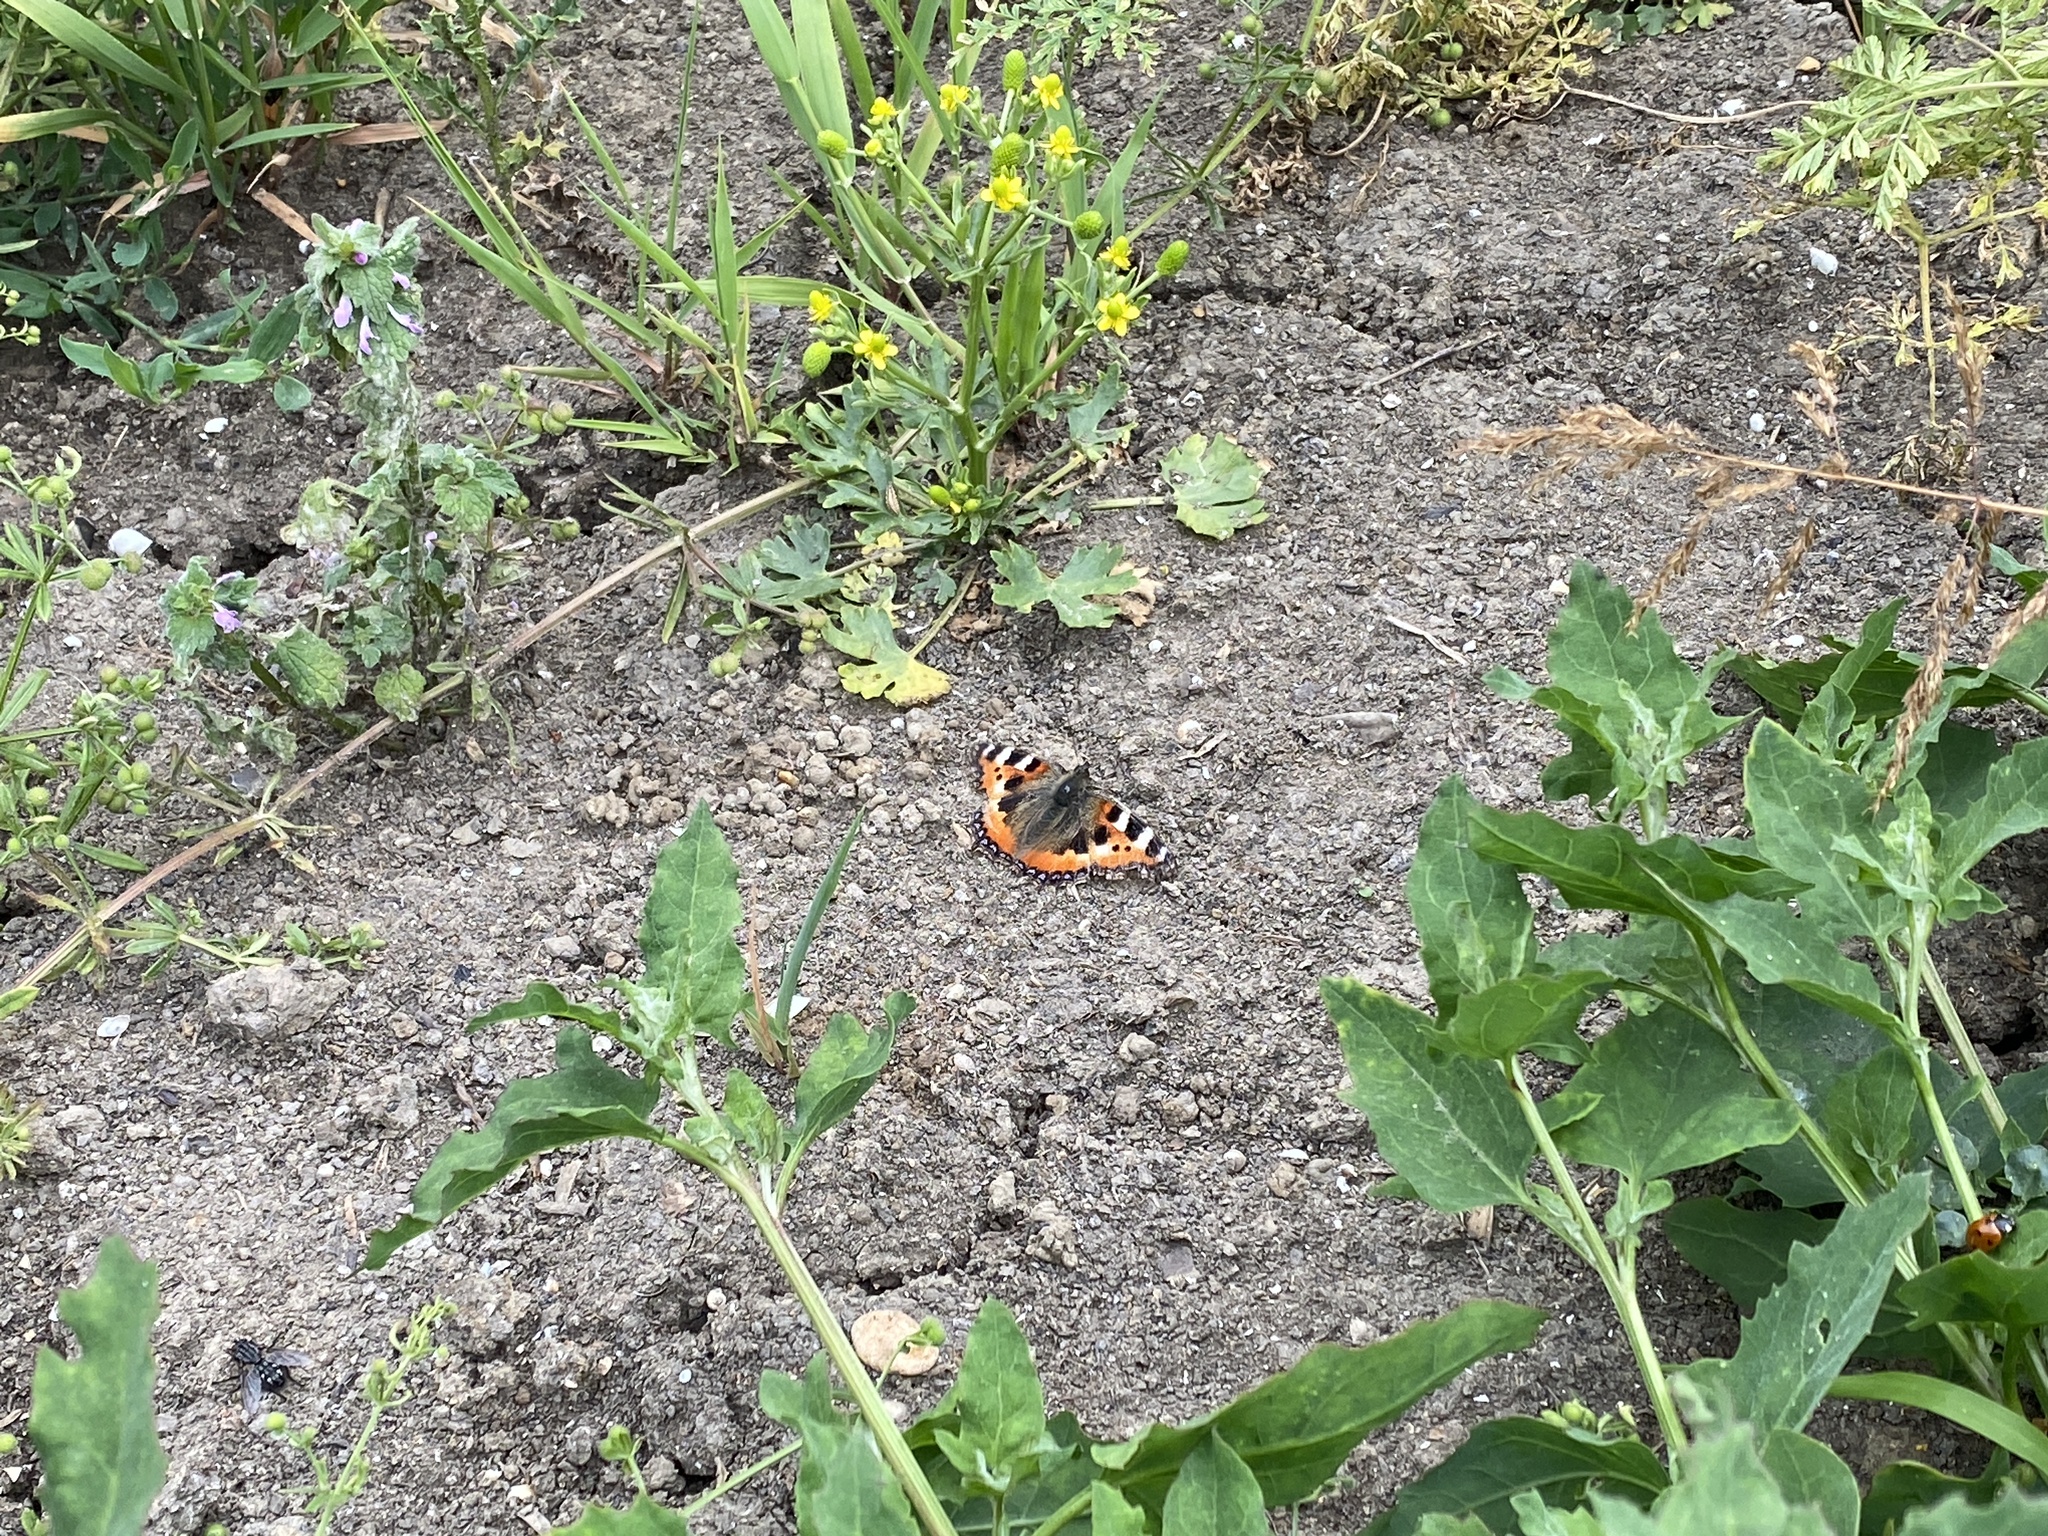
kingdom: Animalia
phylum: Arthropoda
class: Insecta
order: Lepidoptera
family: Nymphalidae
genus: Aglais
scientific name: Aglais urticae
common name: Small tortoiseshell
